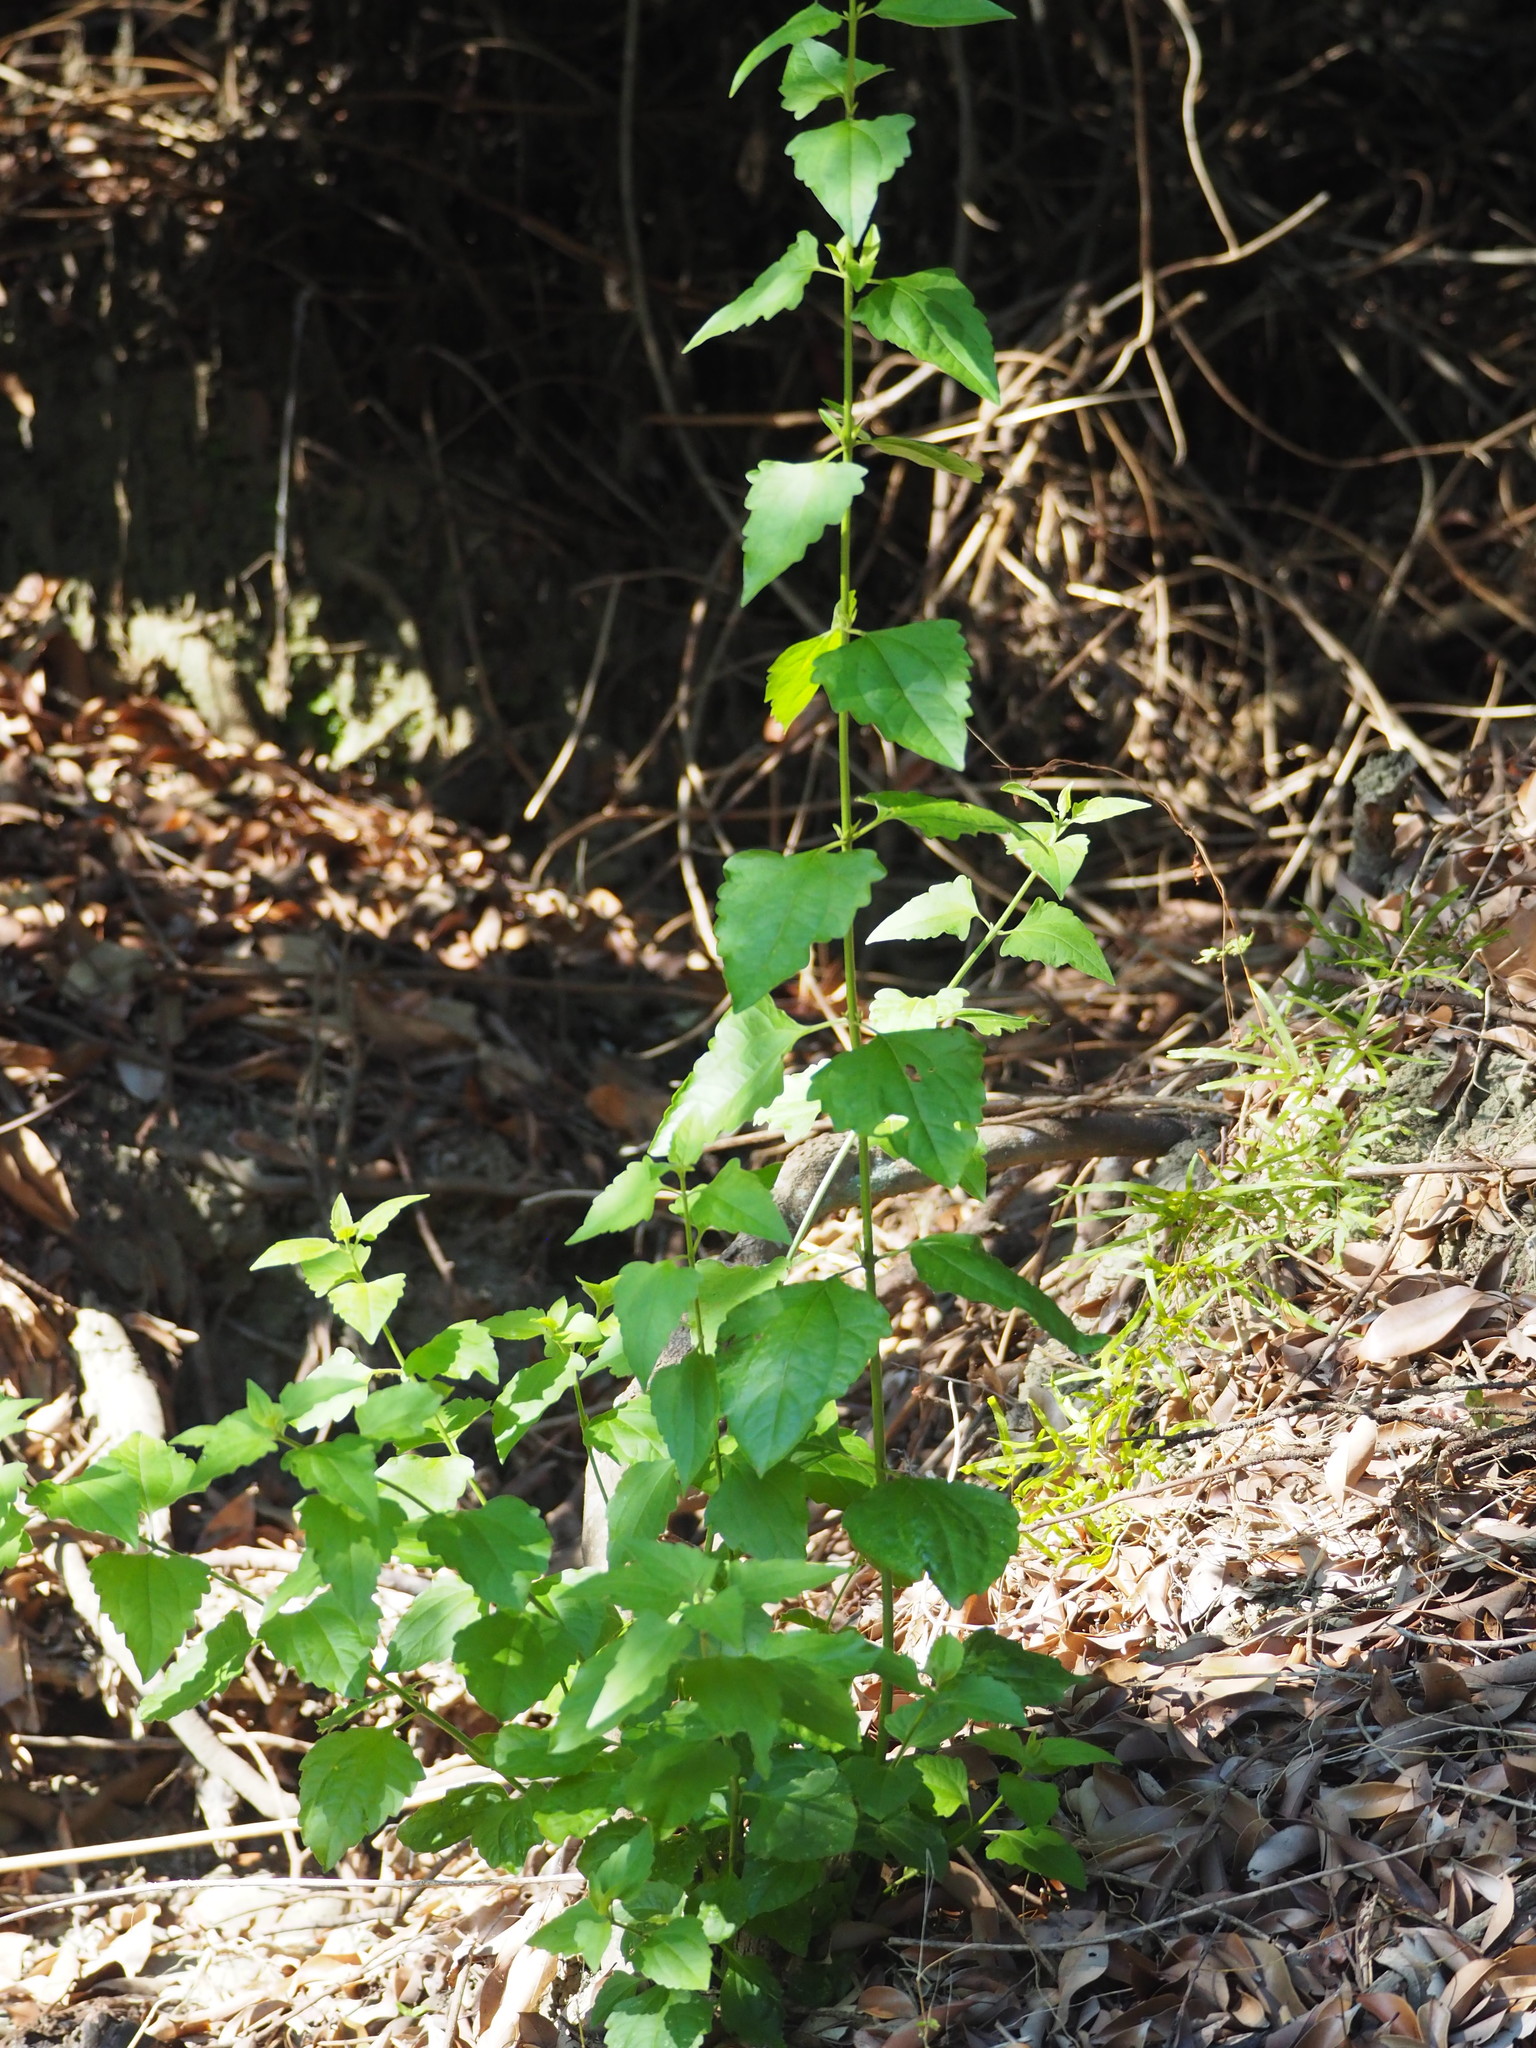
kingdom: Plantae
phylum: Tracheophyta
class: Magnoliopsida
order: Asterales
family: Asteraceae
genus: Chromolaena
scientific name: Chromolaena odorata
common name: Siamweed
